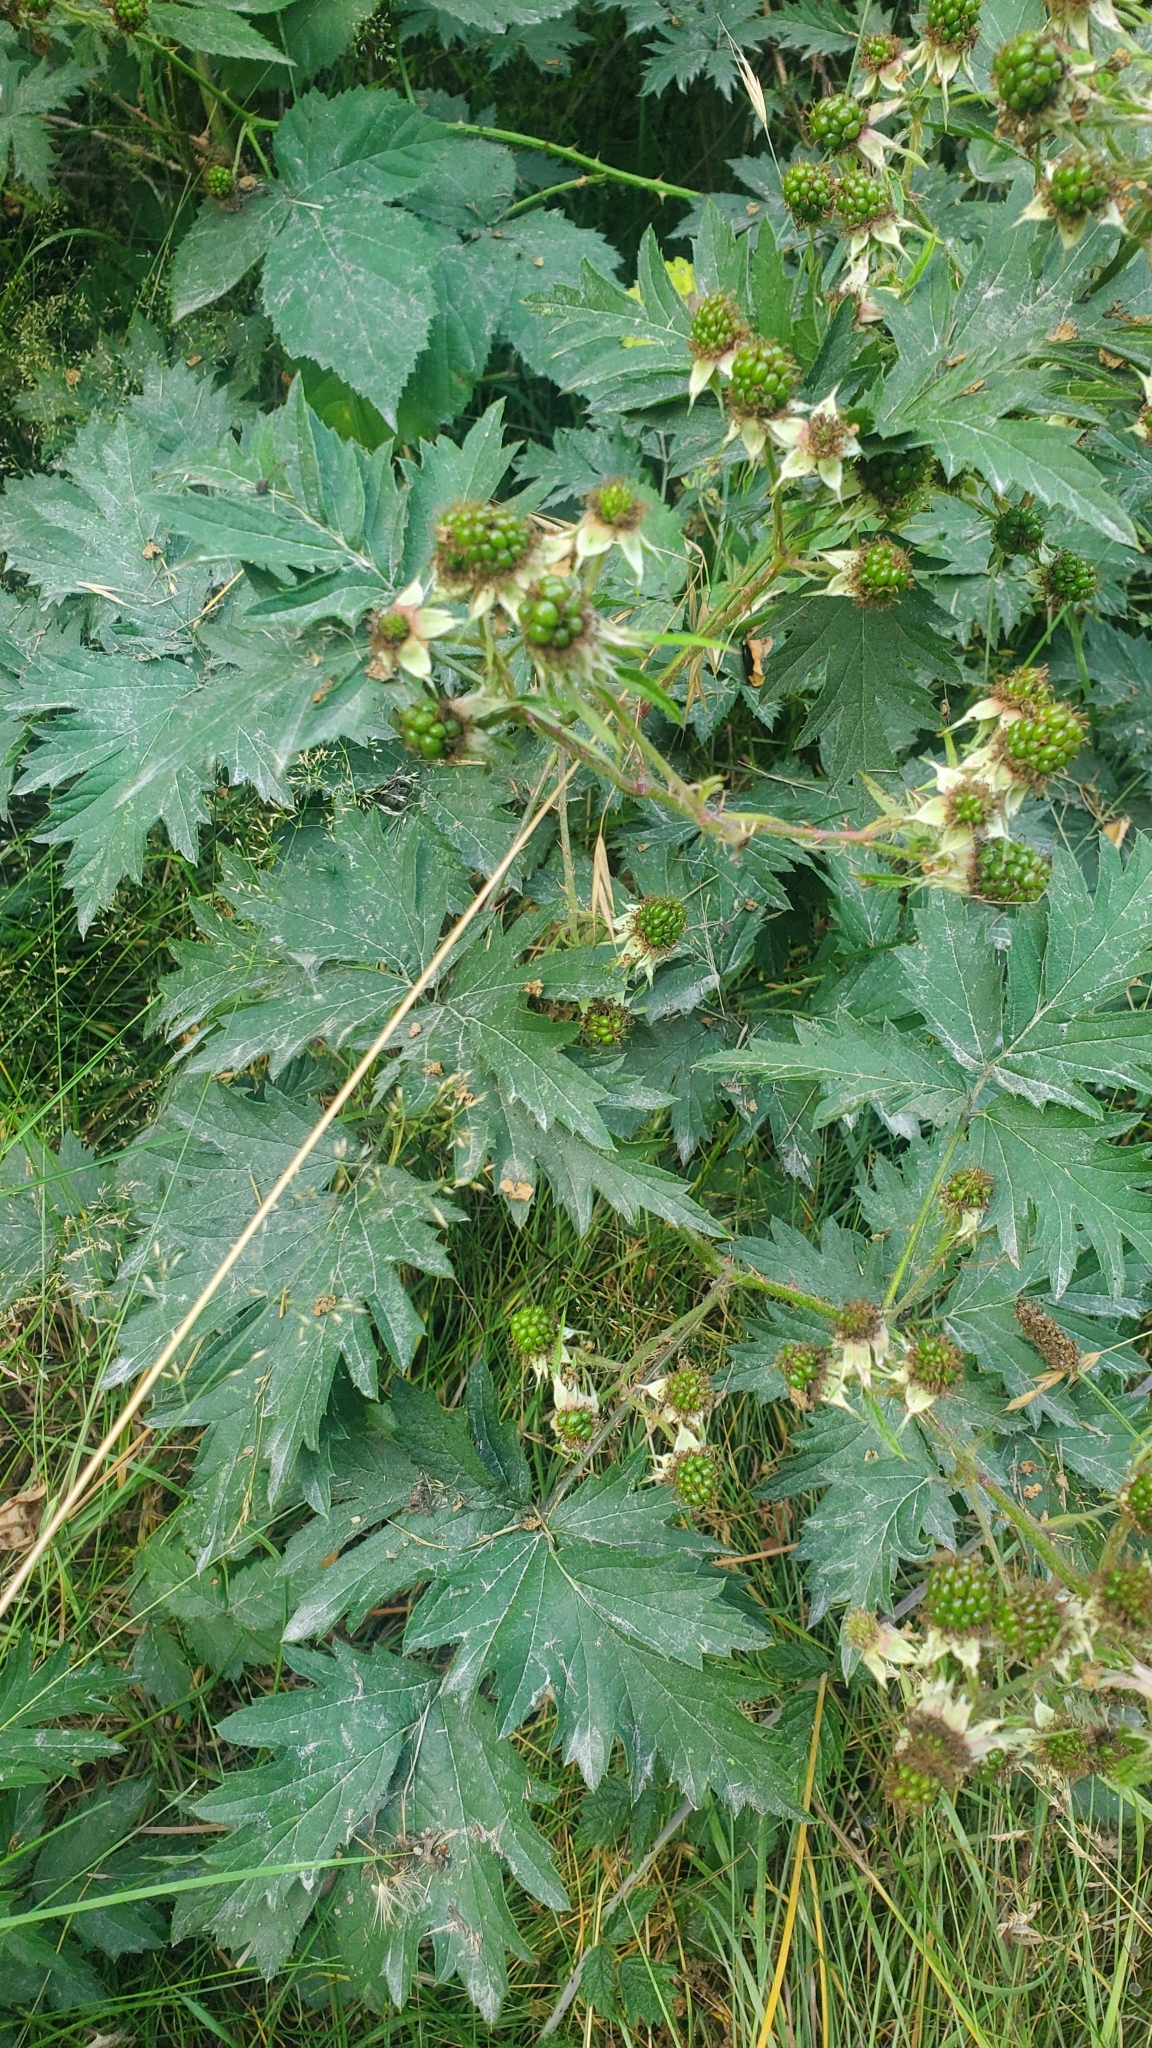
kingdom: Plantae
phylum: Tracheophyta
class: Magnoliopsida
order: Rosales
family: Rosaceae
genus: Rubus
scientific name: Rubus laciniatus
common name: Evergreen blackberry
